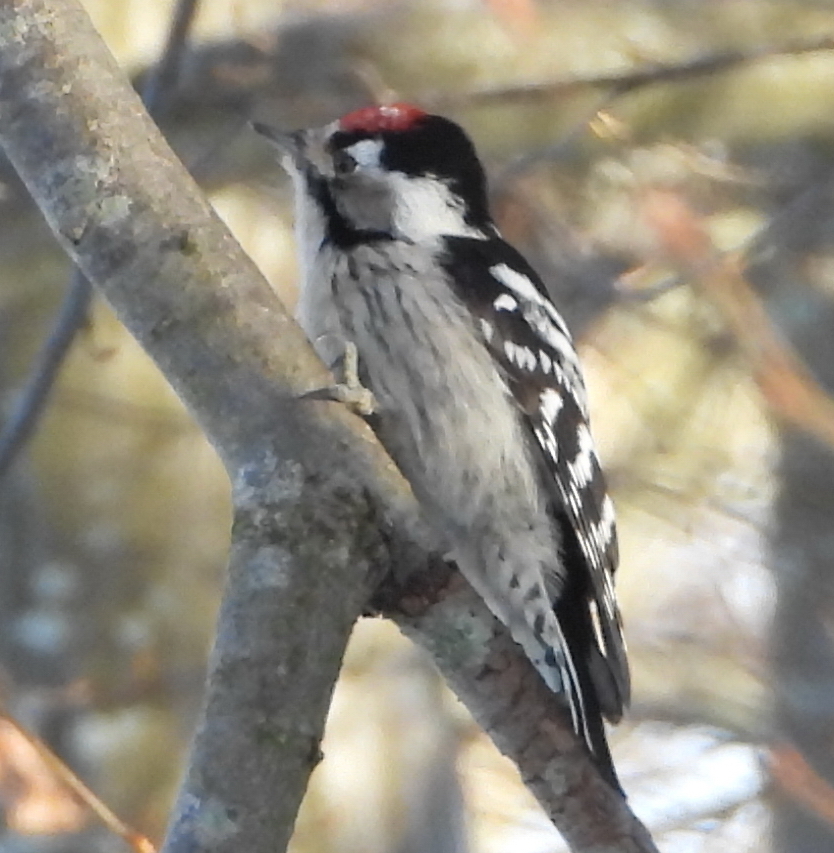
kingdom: Animalia
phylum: Chordata
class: Aves
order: Piciformes
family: Picidae
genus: Dryobates
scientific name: Dryobates minor
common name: Lesser spotted woodpecker
